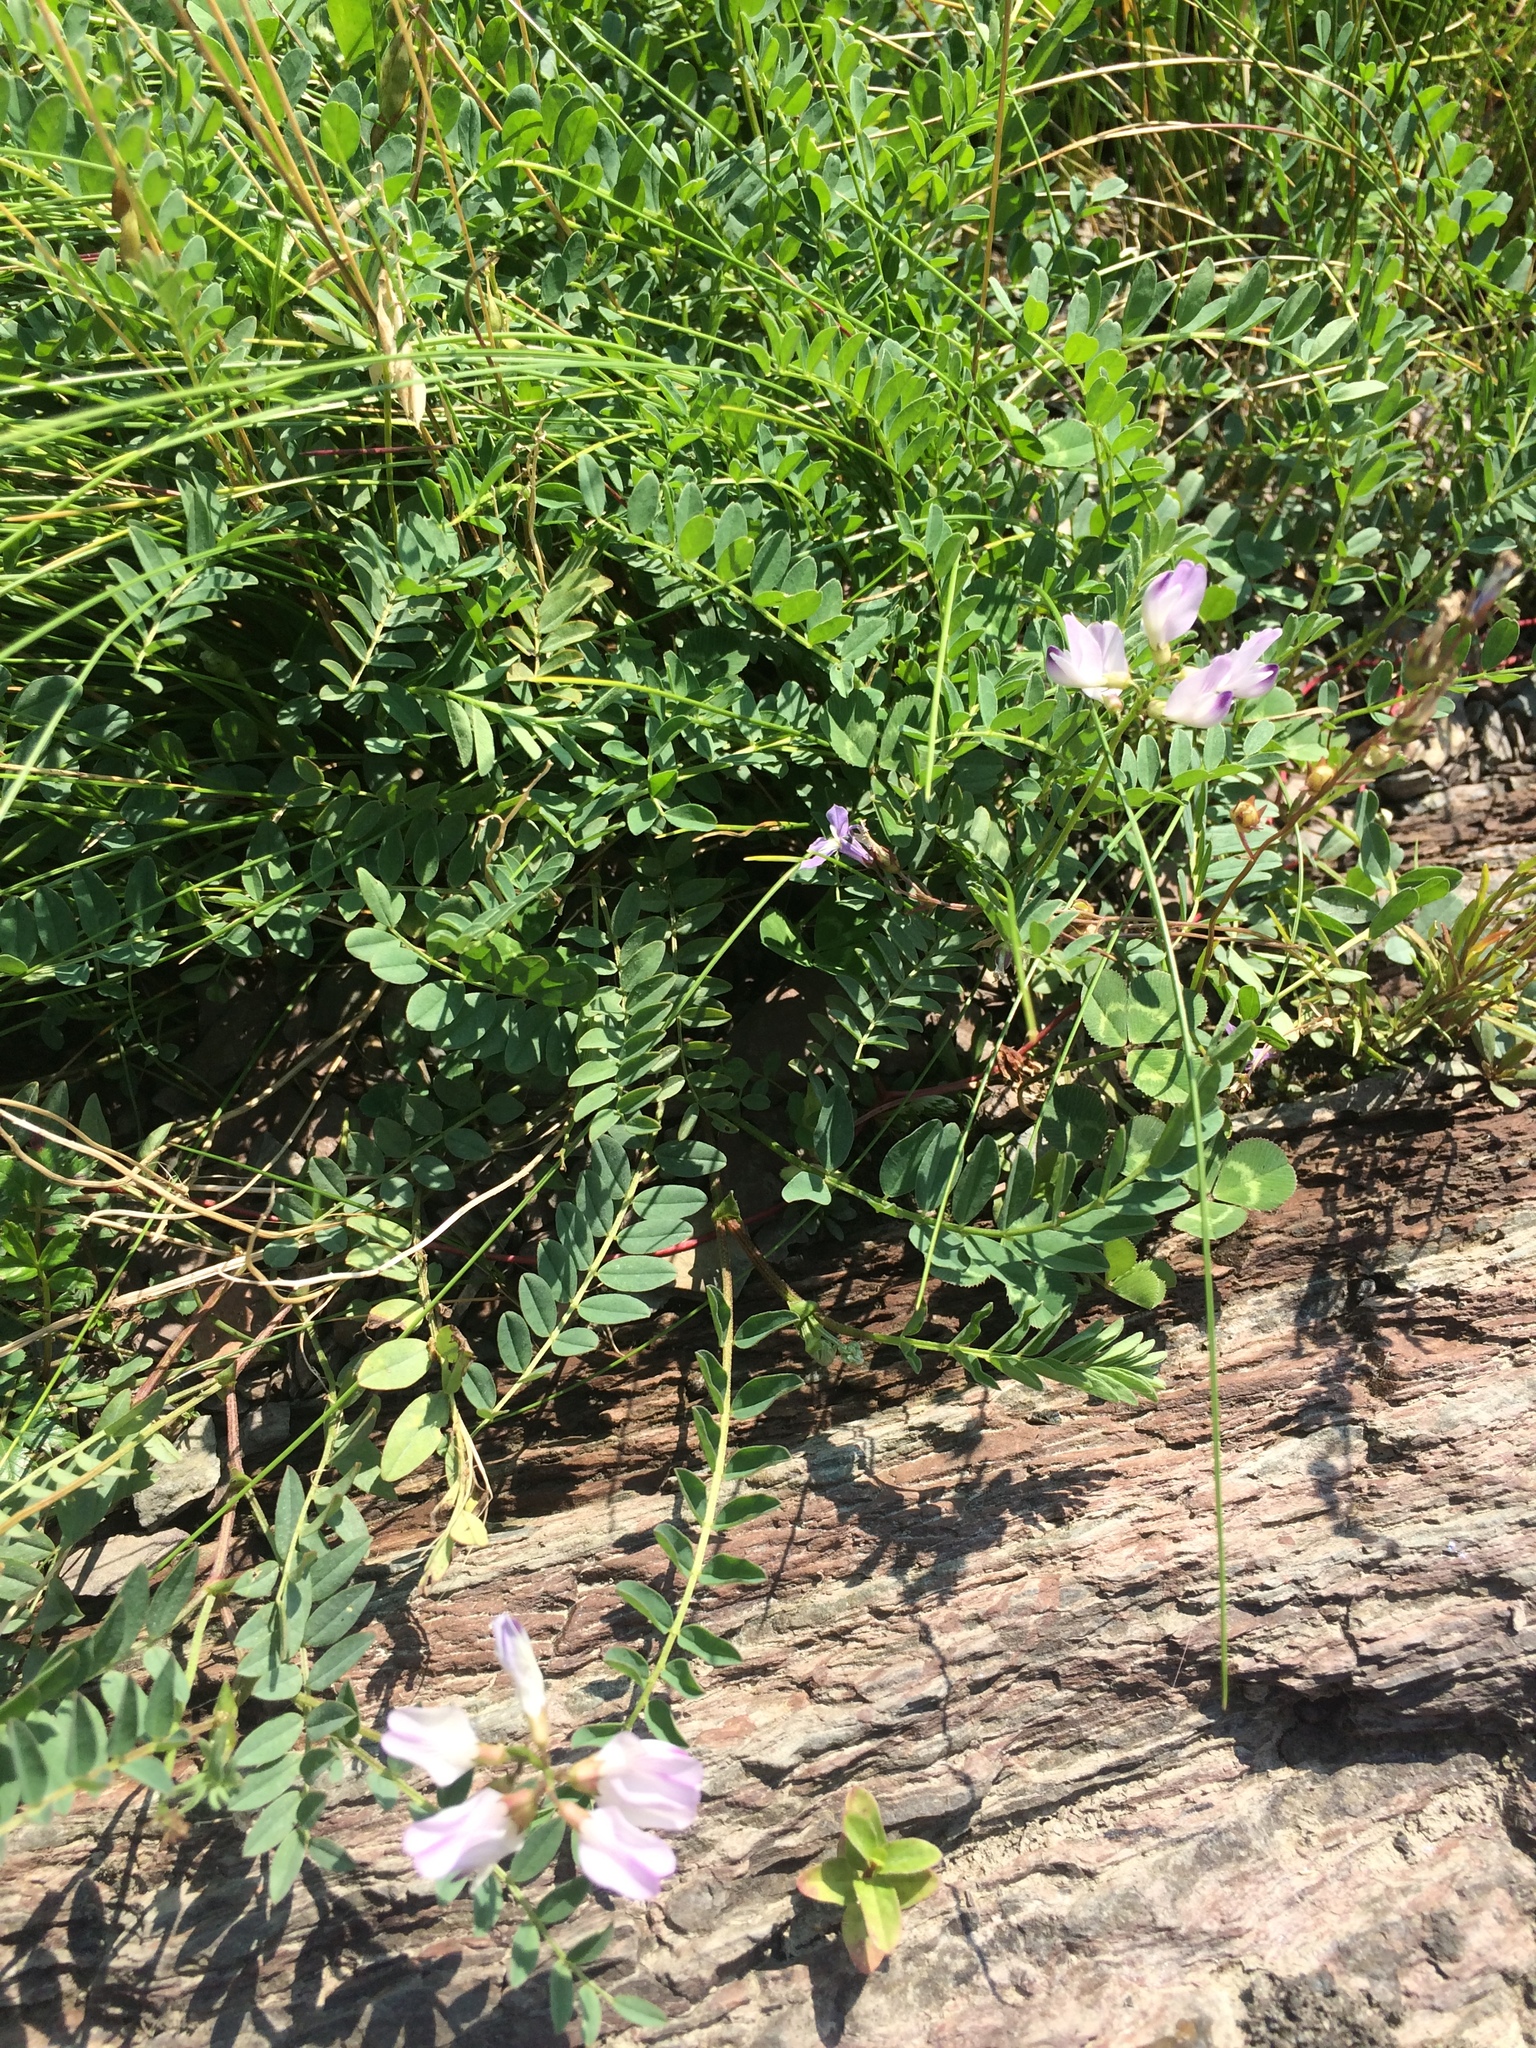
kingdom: Plantae
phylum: Tracheophyta
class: Magnoliopsida
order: Fabales
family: Fabaceae
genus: Astragalus
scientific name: Astragalus alpinus
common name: Alpine milk-vetch
